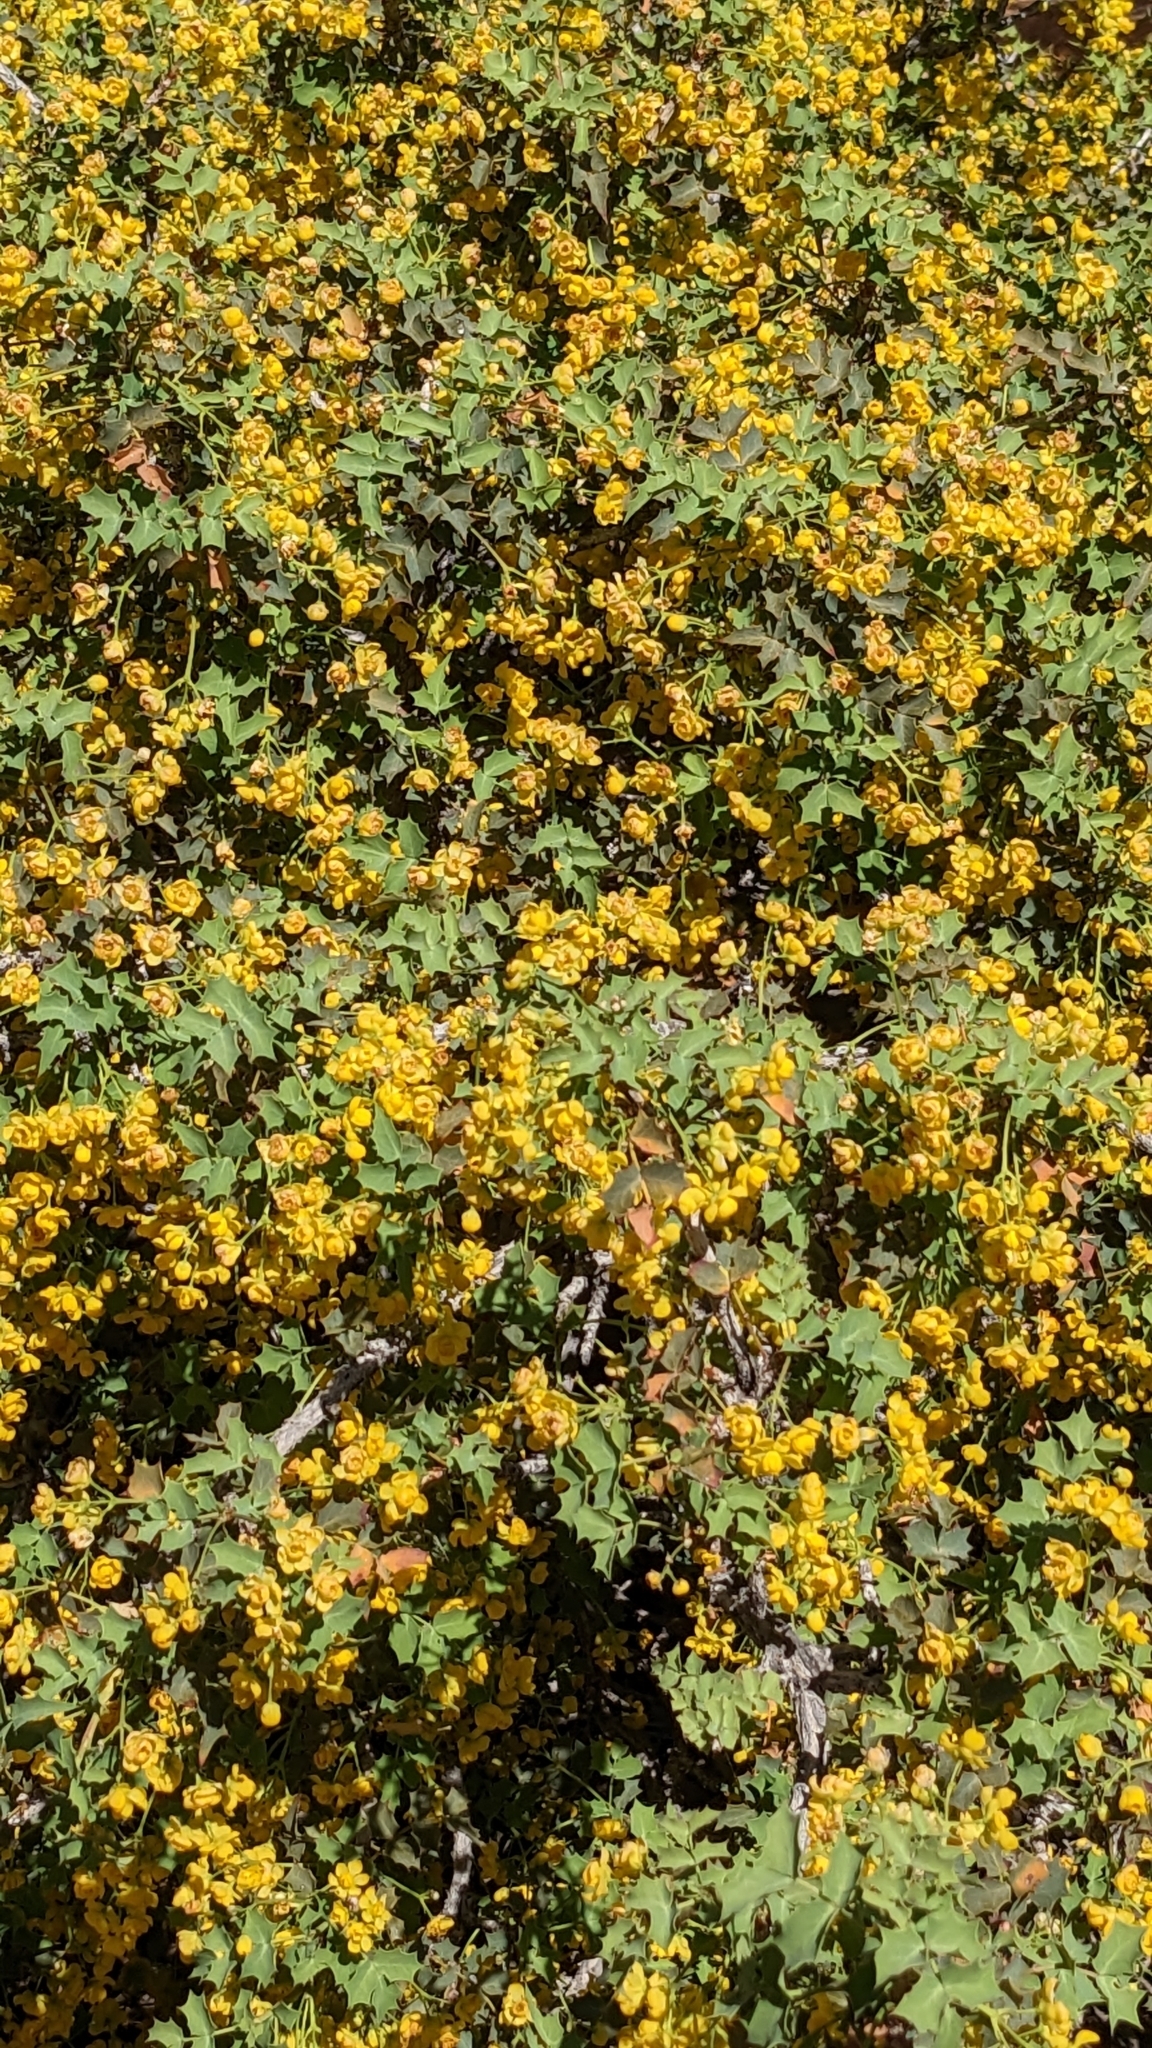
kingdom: Plantae
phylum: Tracheophyta
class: Magnoliopsida
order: Ranunculales
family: Berberidaceae
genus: Alloberberis
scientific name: Alloberberis fremontii
